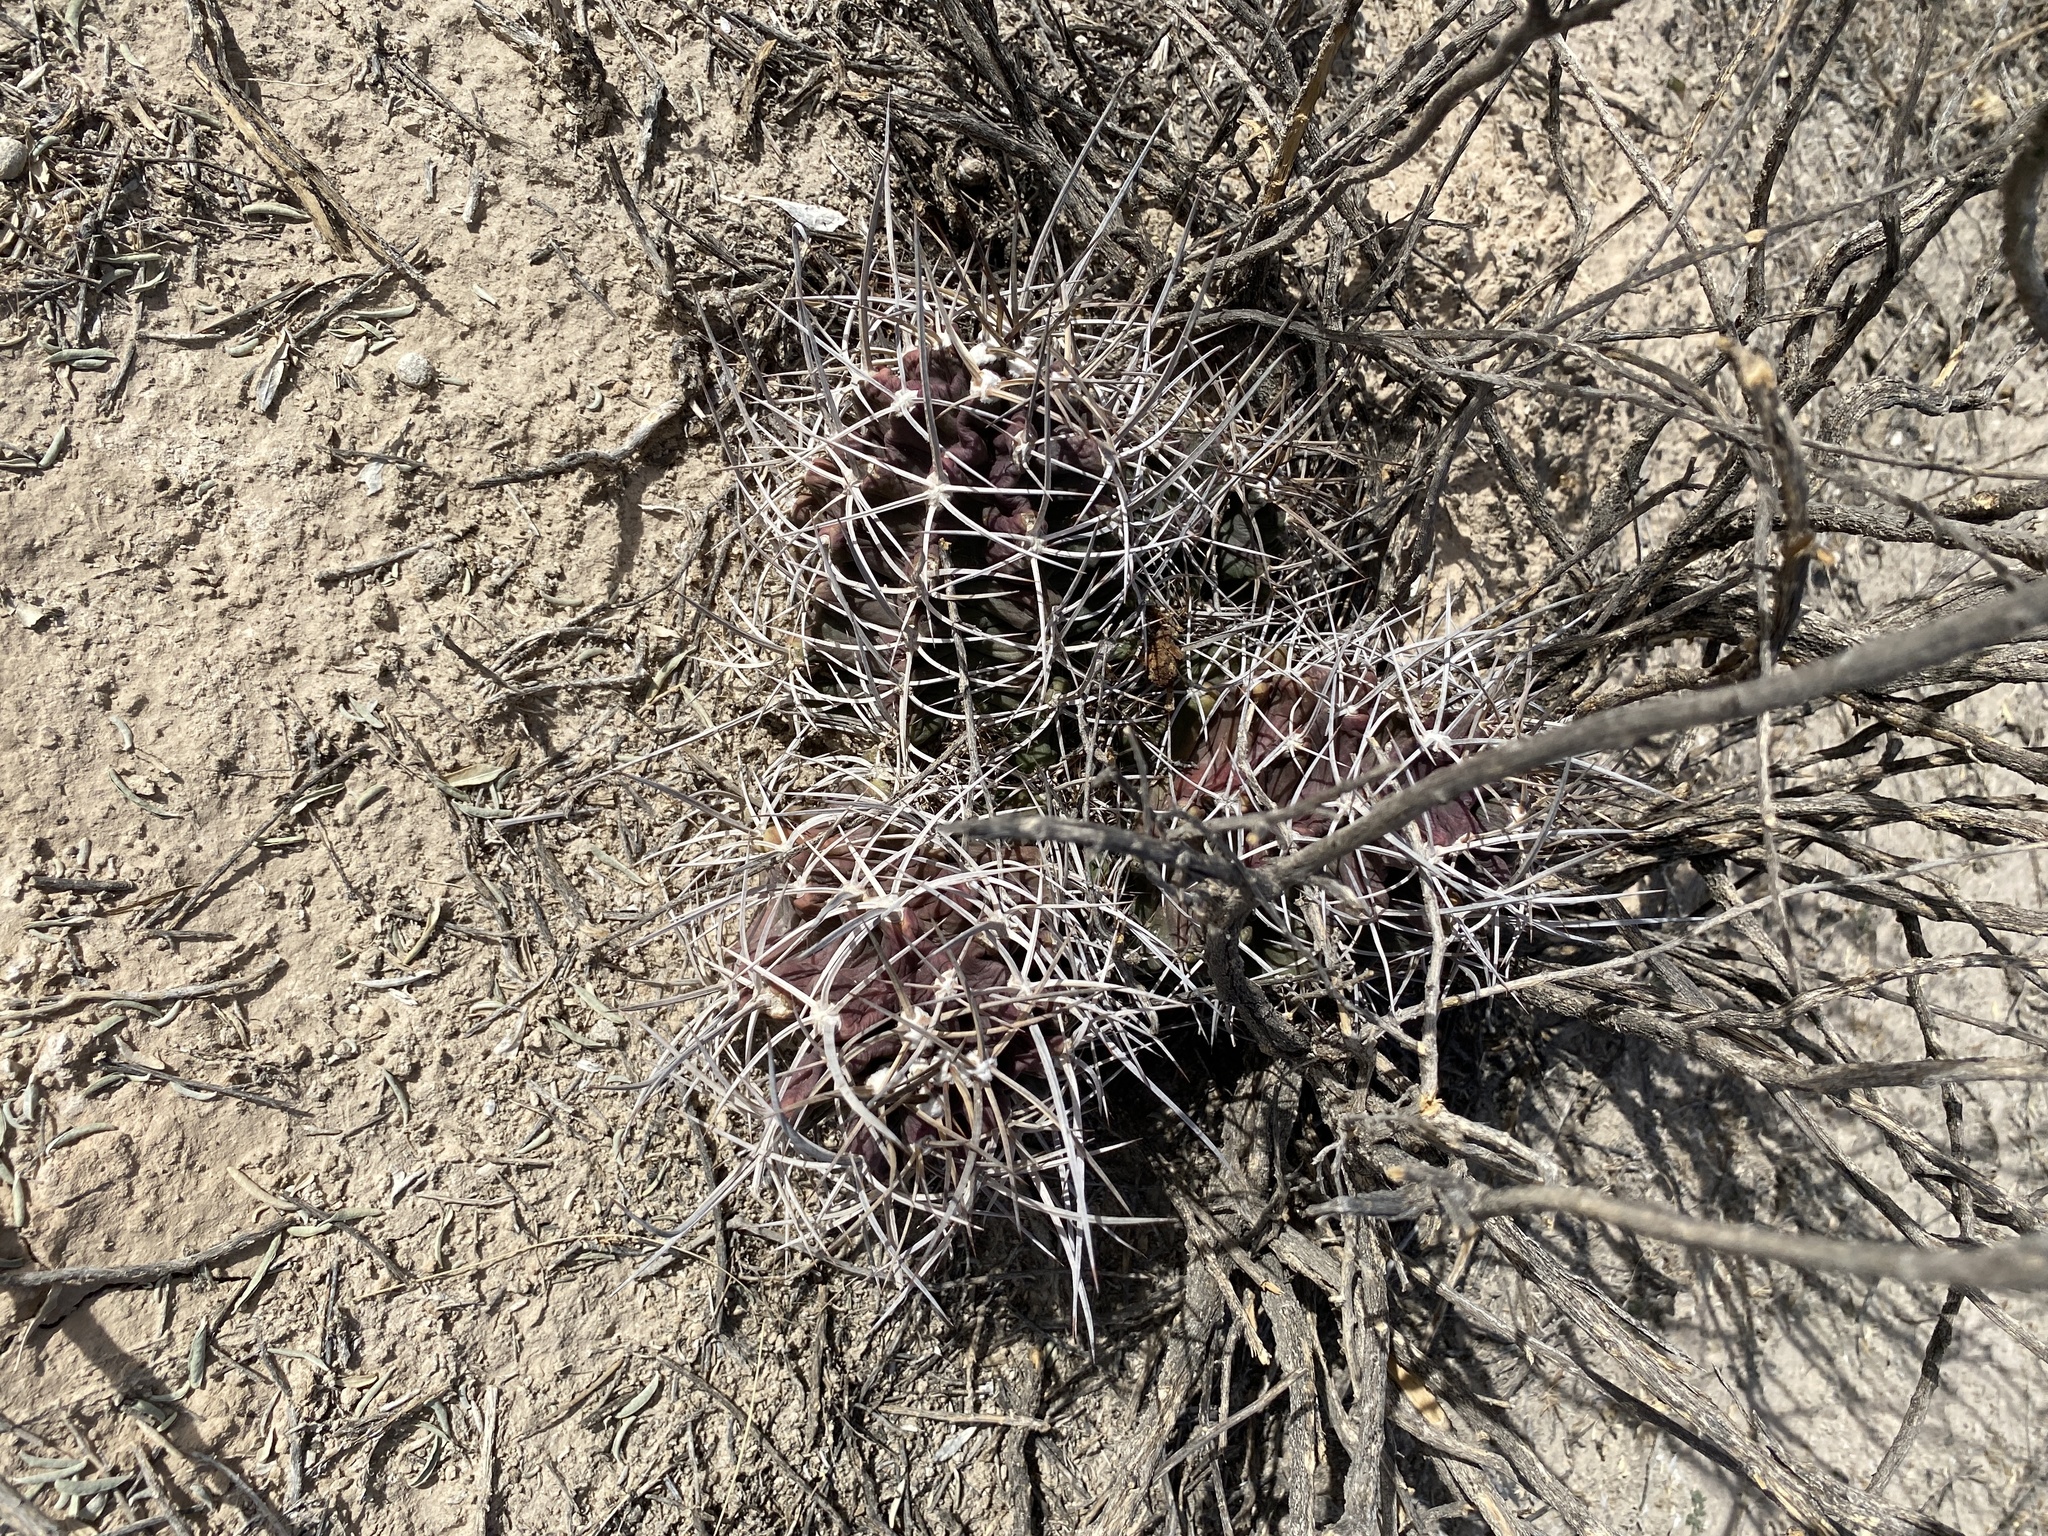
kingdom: Plantae
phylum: Tracheophyta
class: Magnoliopsida
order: Caryophyllales
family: Cactaceae
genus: Echinocereus
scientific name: Echinocereus triglochidiatus
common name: Claretcup hedgehog
